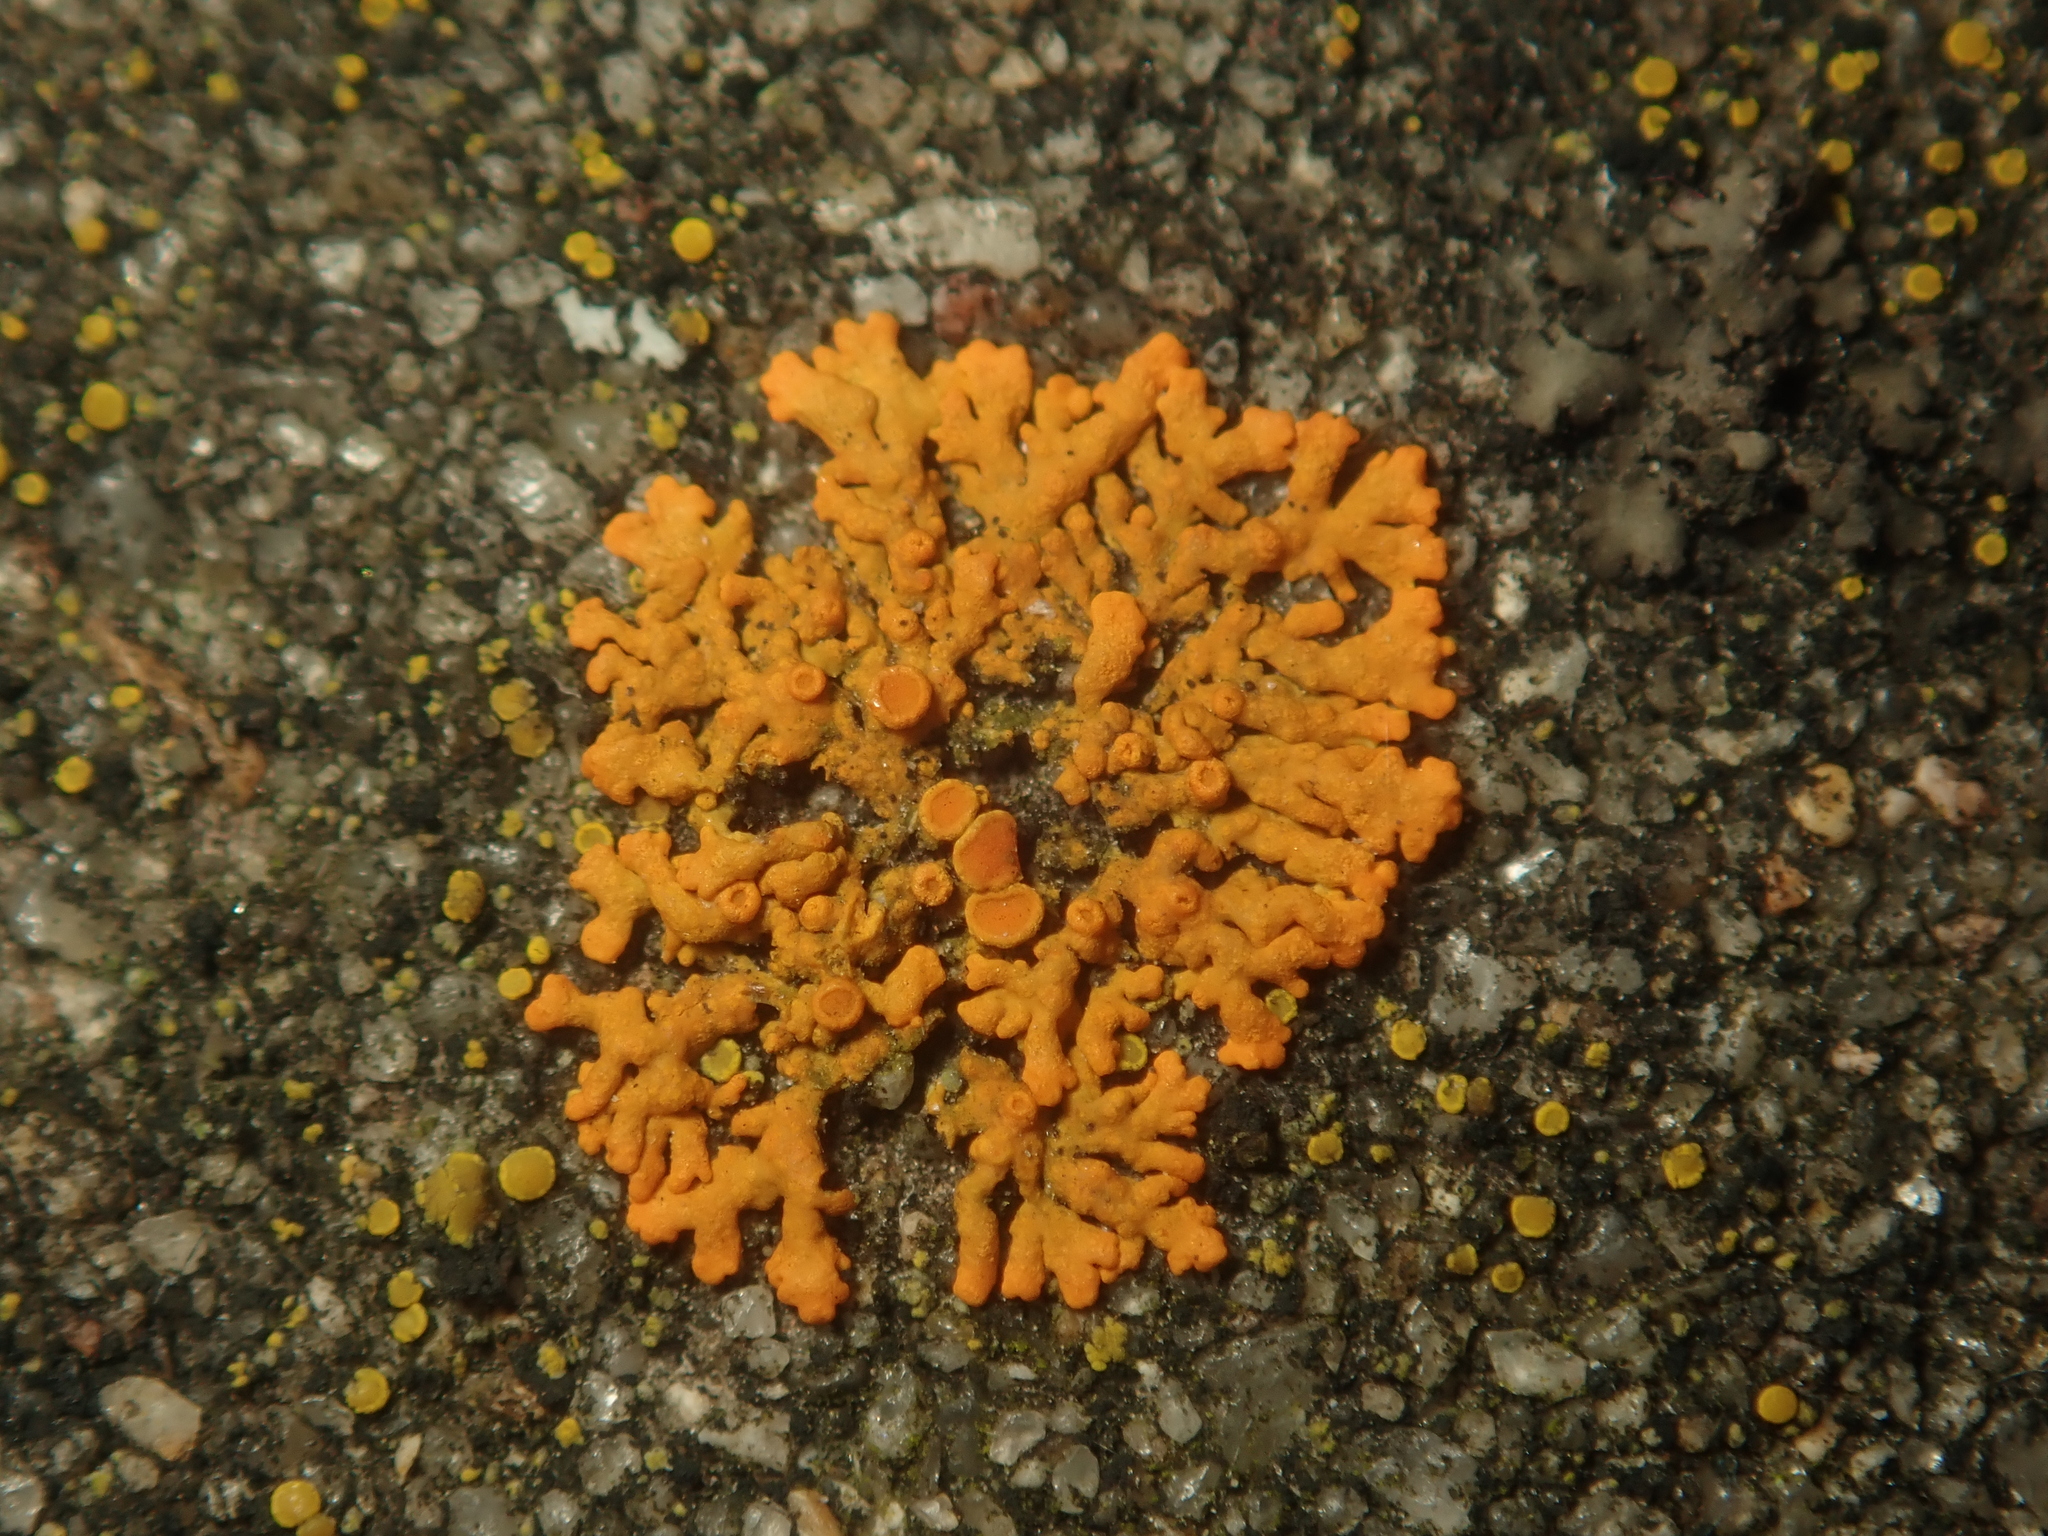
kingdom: Fungi
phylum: Ascomycota
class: Lecanoromycetes
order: Teloschistales
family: Teloschistaceae
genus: Xanthoria
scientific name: Xanthoria elegans
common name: Elegant sunburst lichen
